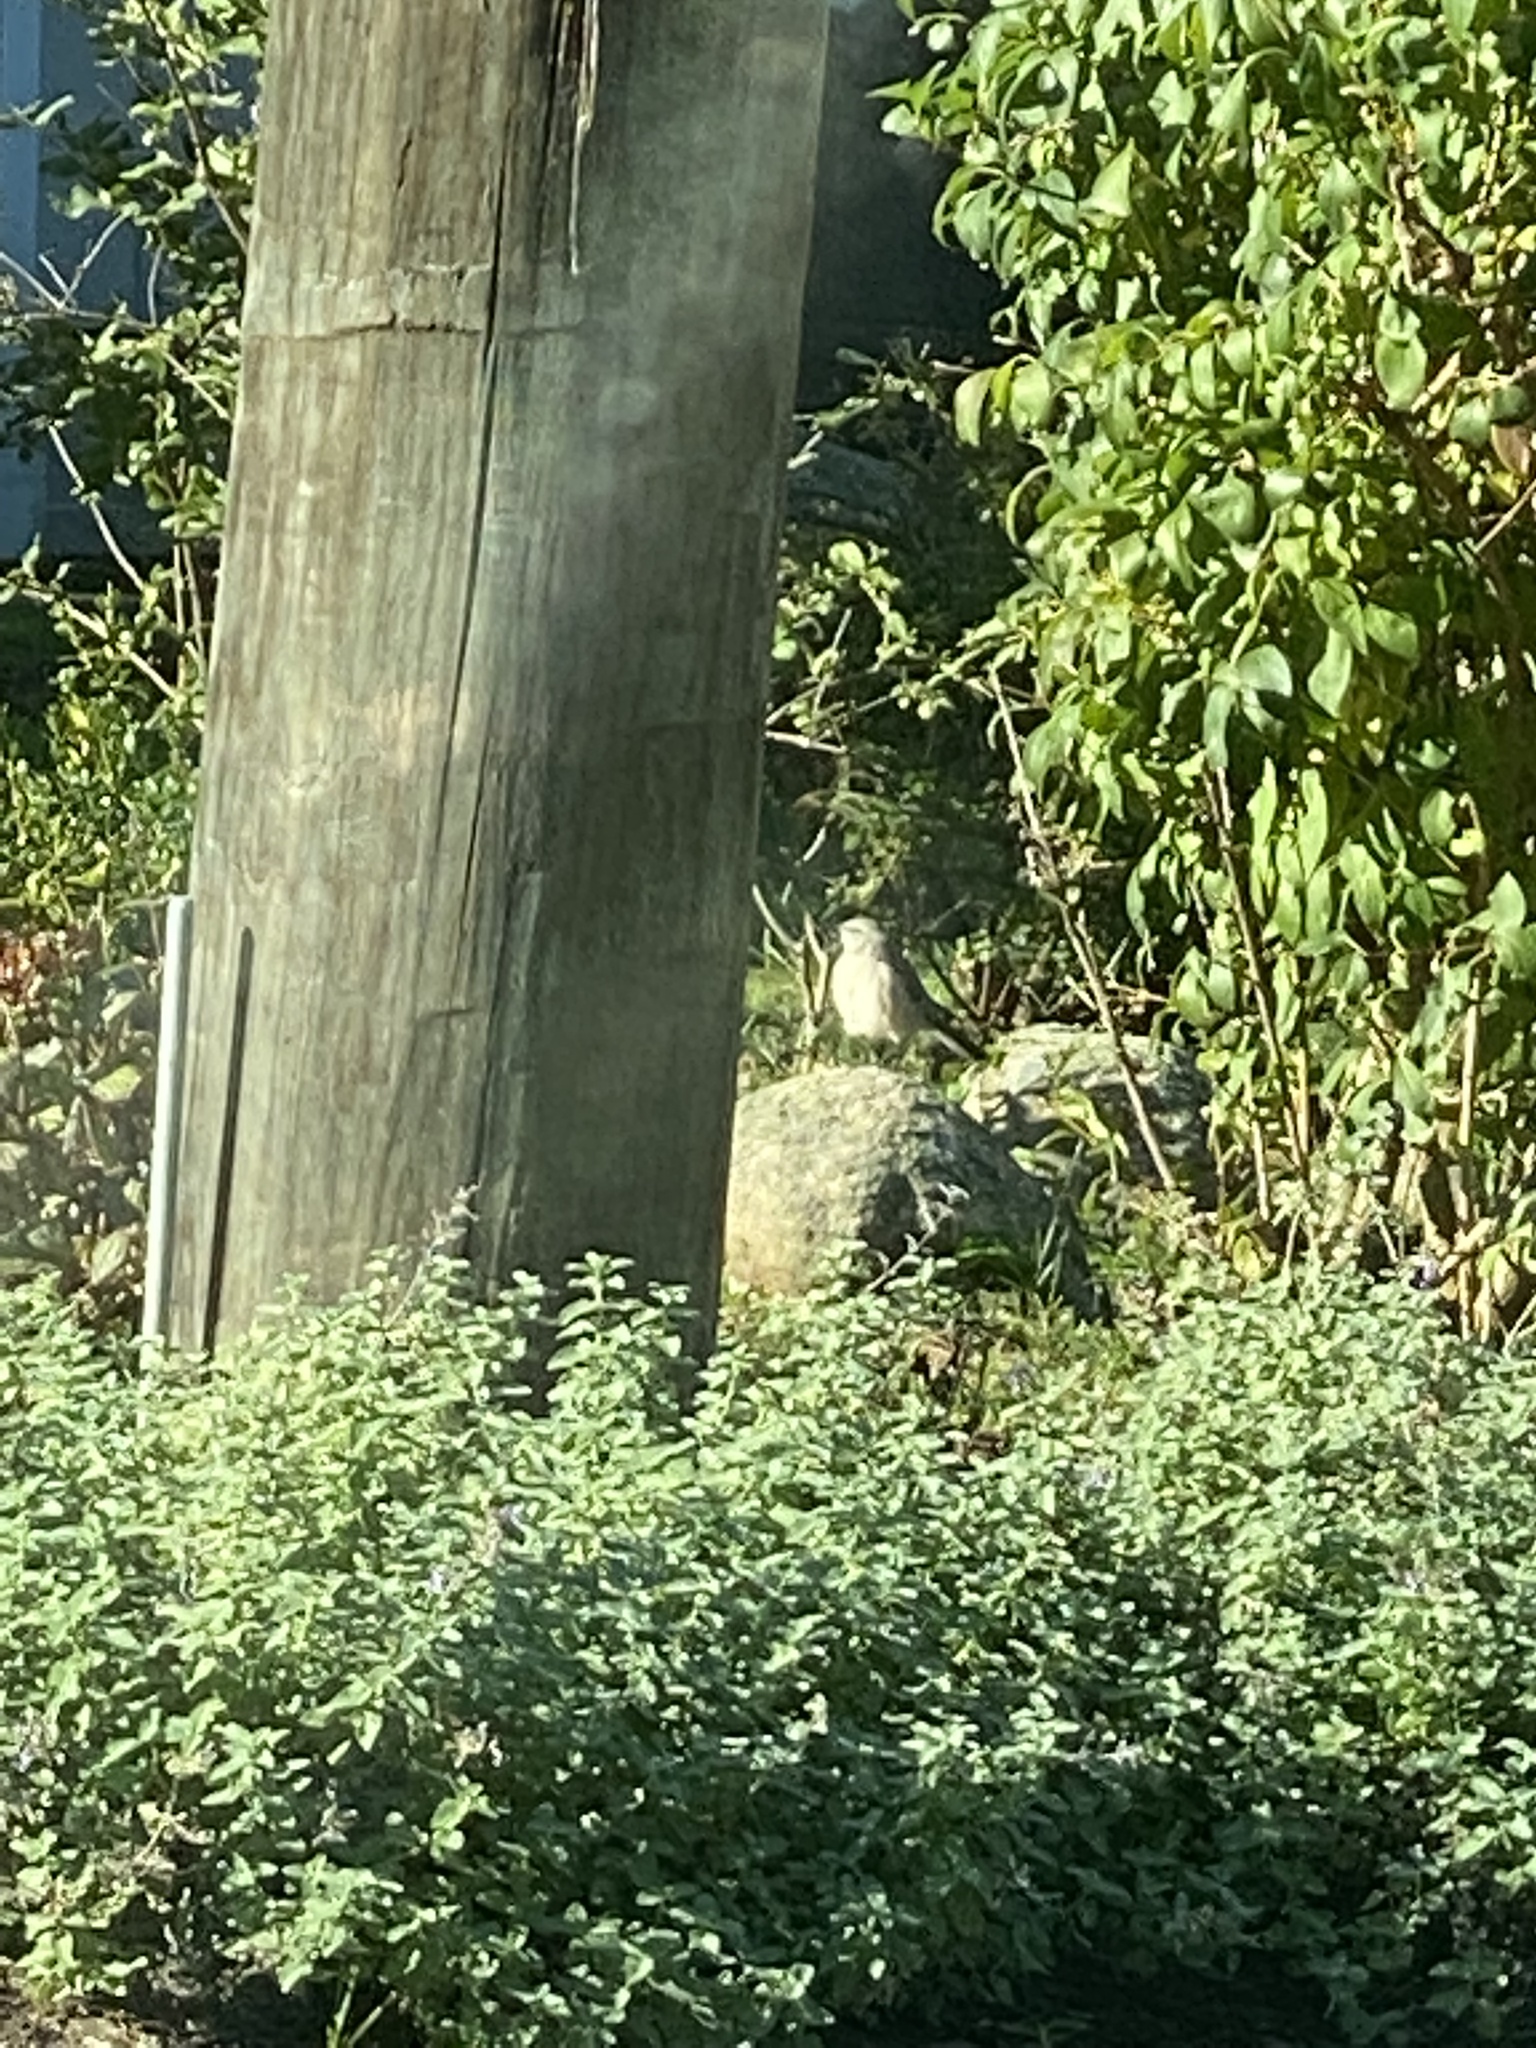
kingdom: Animalia
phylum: Chordata
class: Aves
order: Passeriformes
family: Mimidae
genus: Mimus
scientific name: Mimus polyglottos
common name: Northern mockingbird
